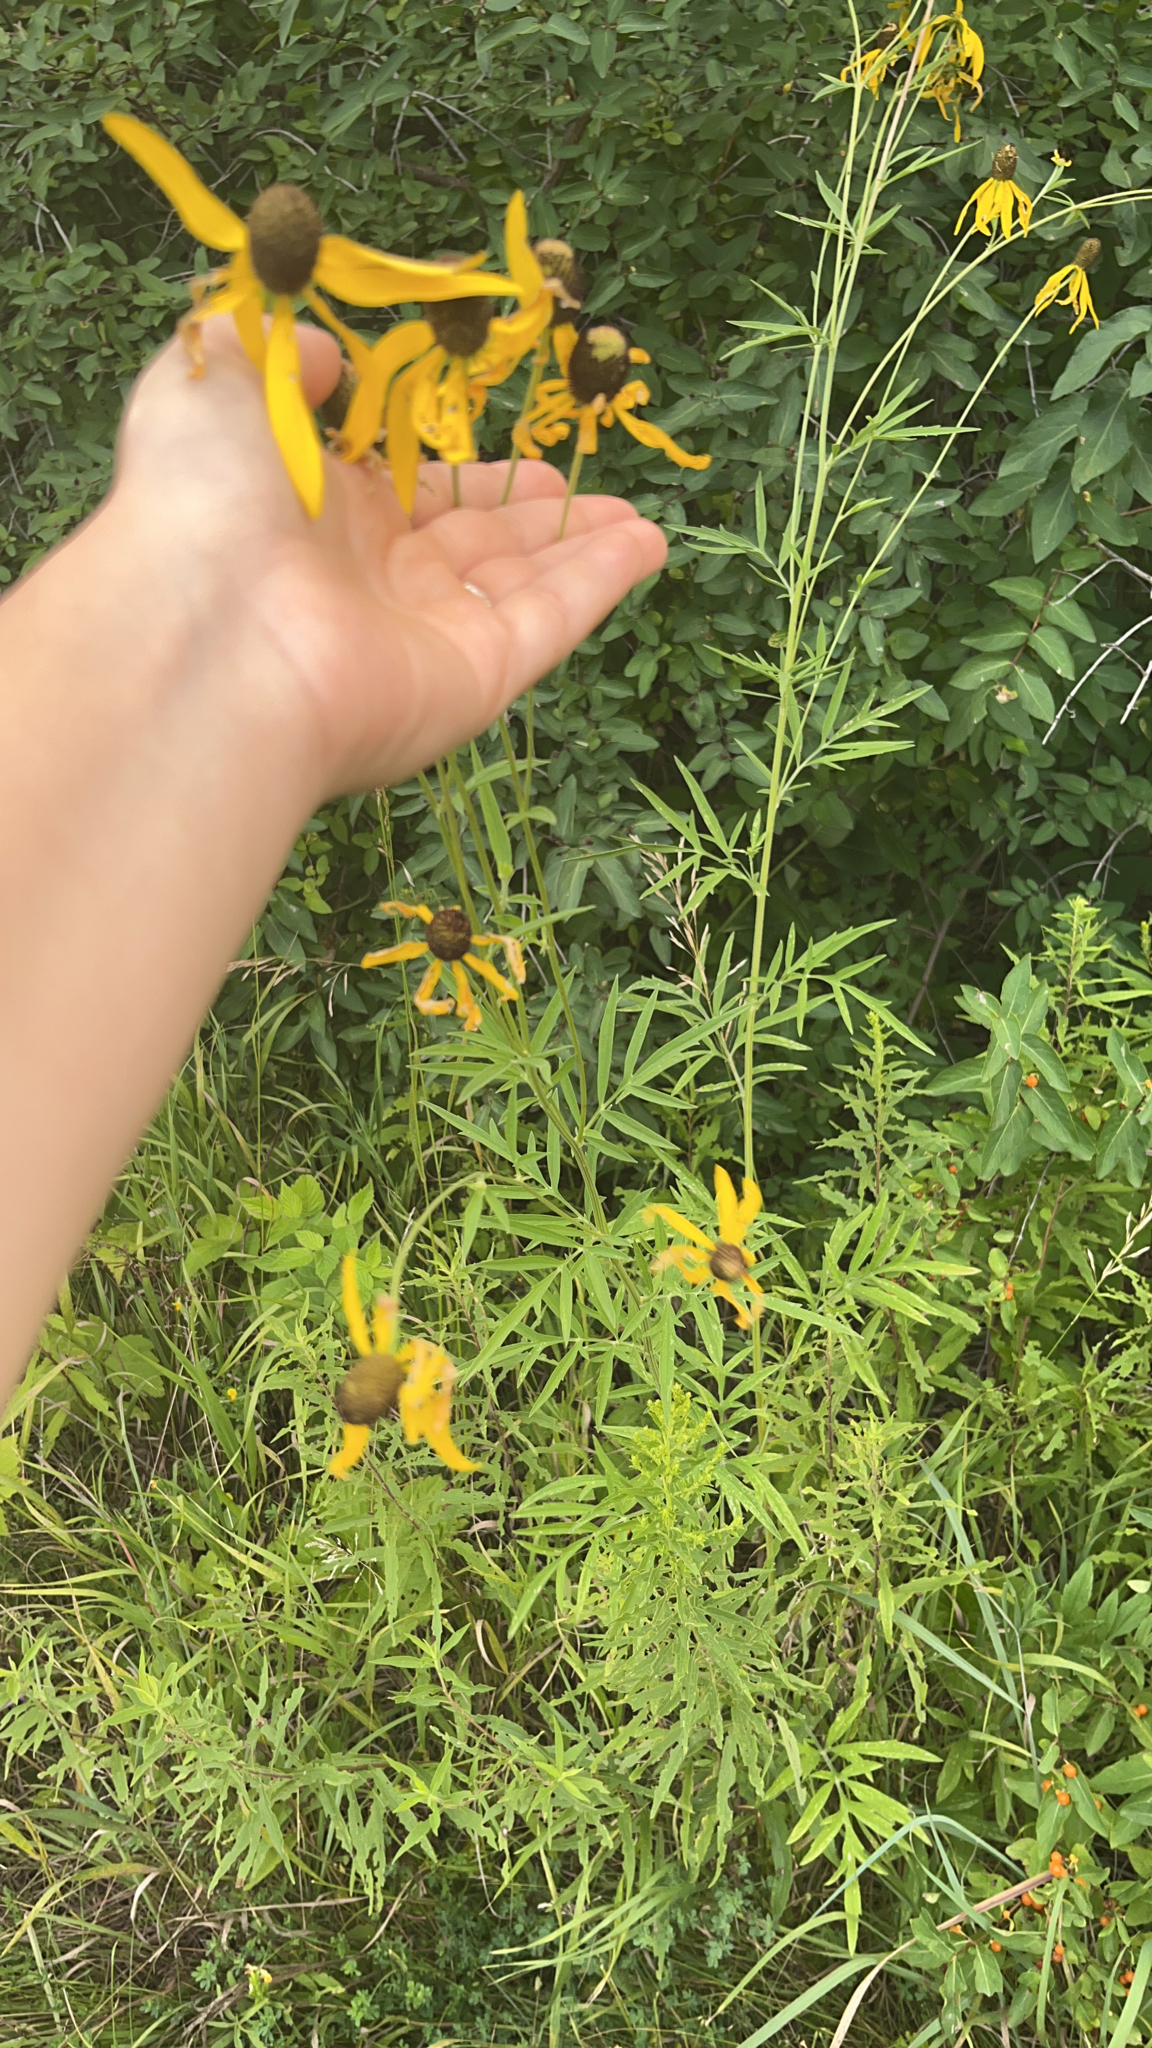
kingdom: Plantae
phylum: Tracheophyta
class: Magnoliopsida
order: Asterales
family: Asteraceae
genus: Ratibida
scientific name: Ratibida pinnata
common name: Drooping prairie-coneflower
